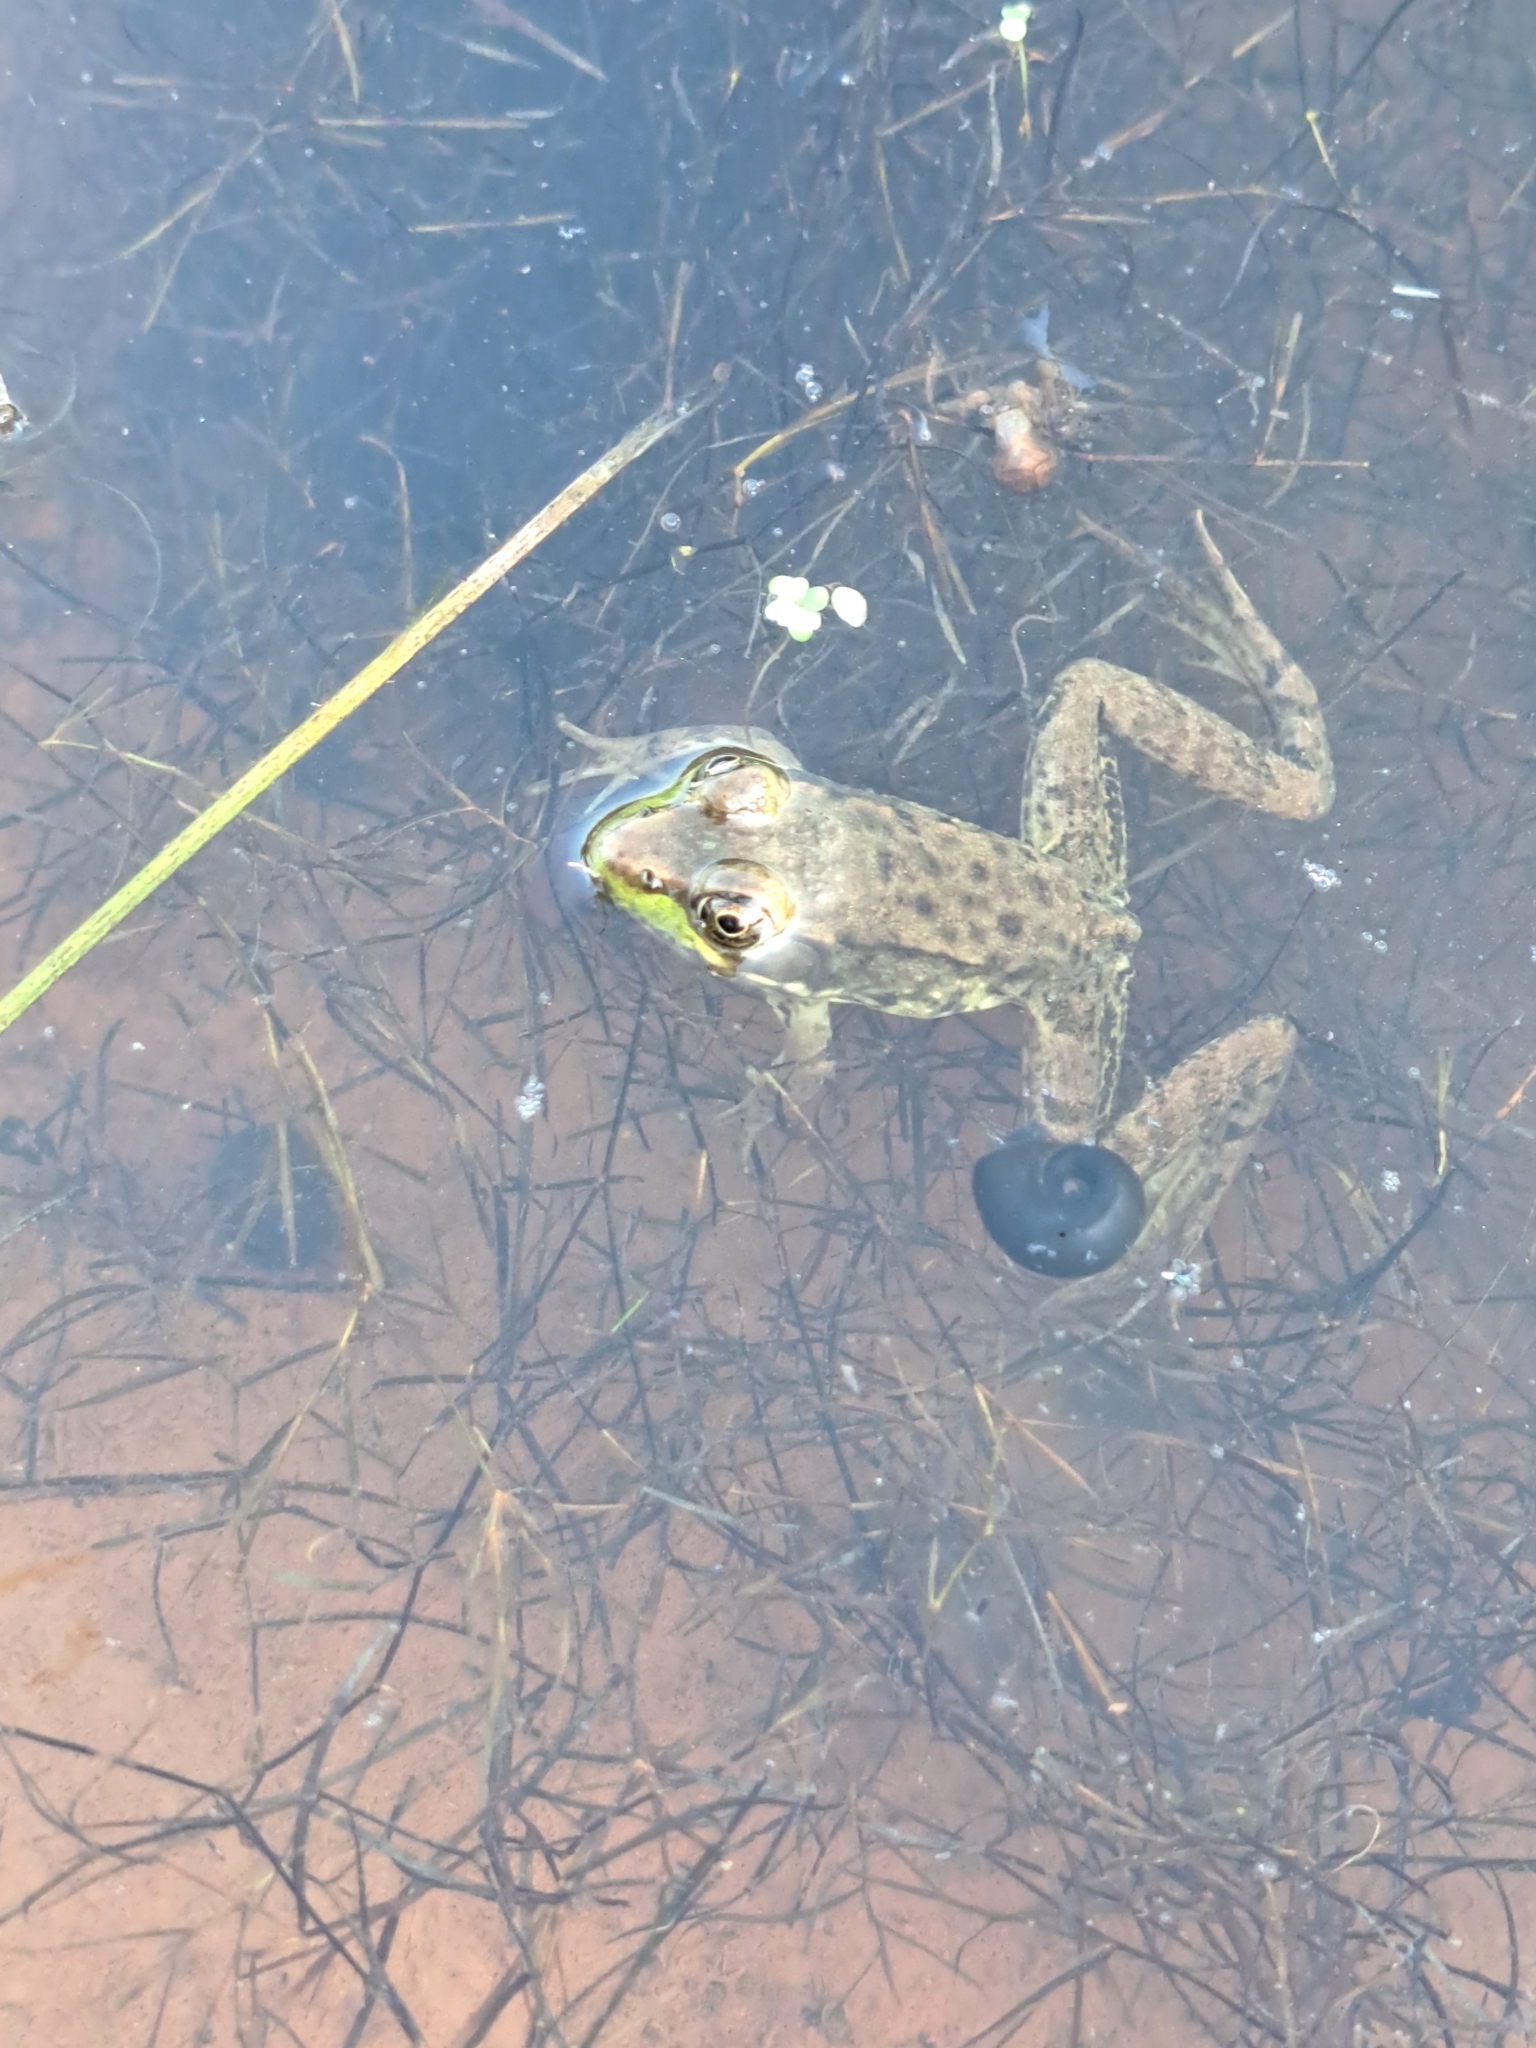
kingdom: Animalia
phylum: Chordata
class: Amphibia
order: Anura
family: Ranidae
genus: Lithobates
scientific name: Lithobates clamitans
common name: Green frog
